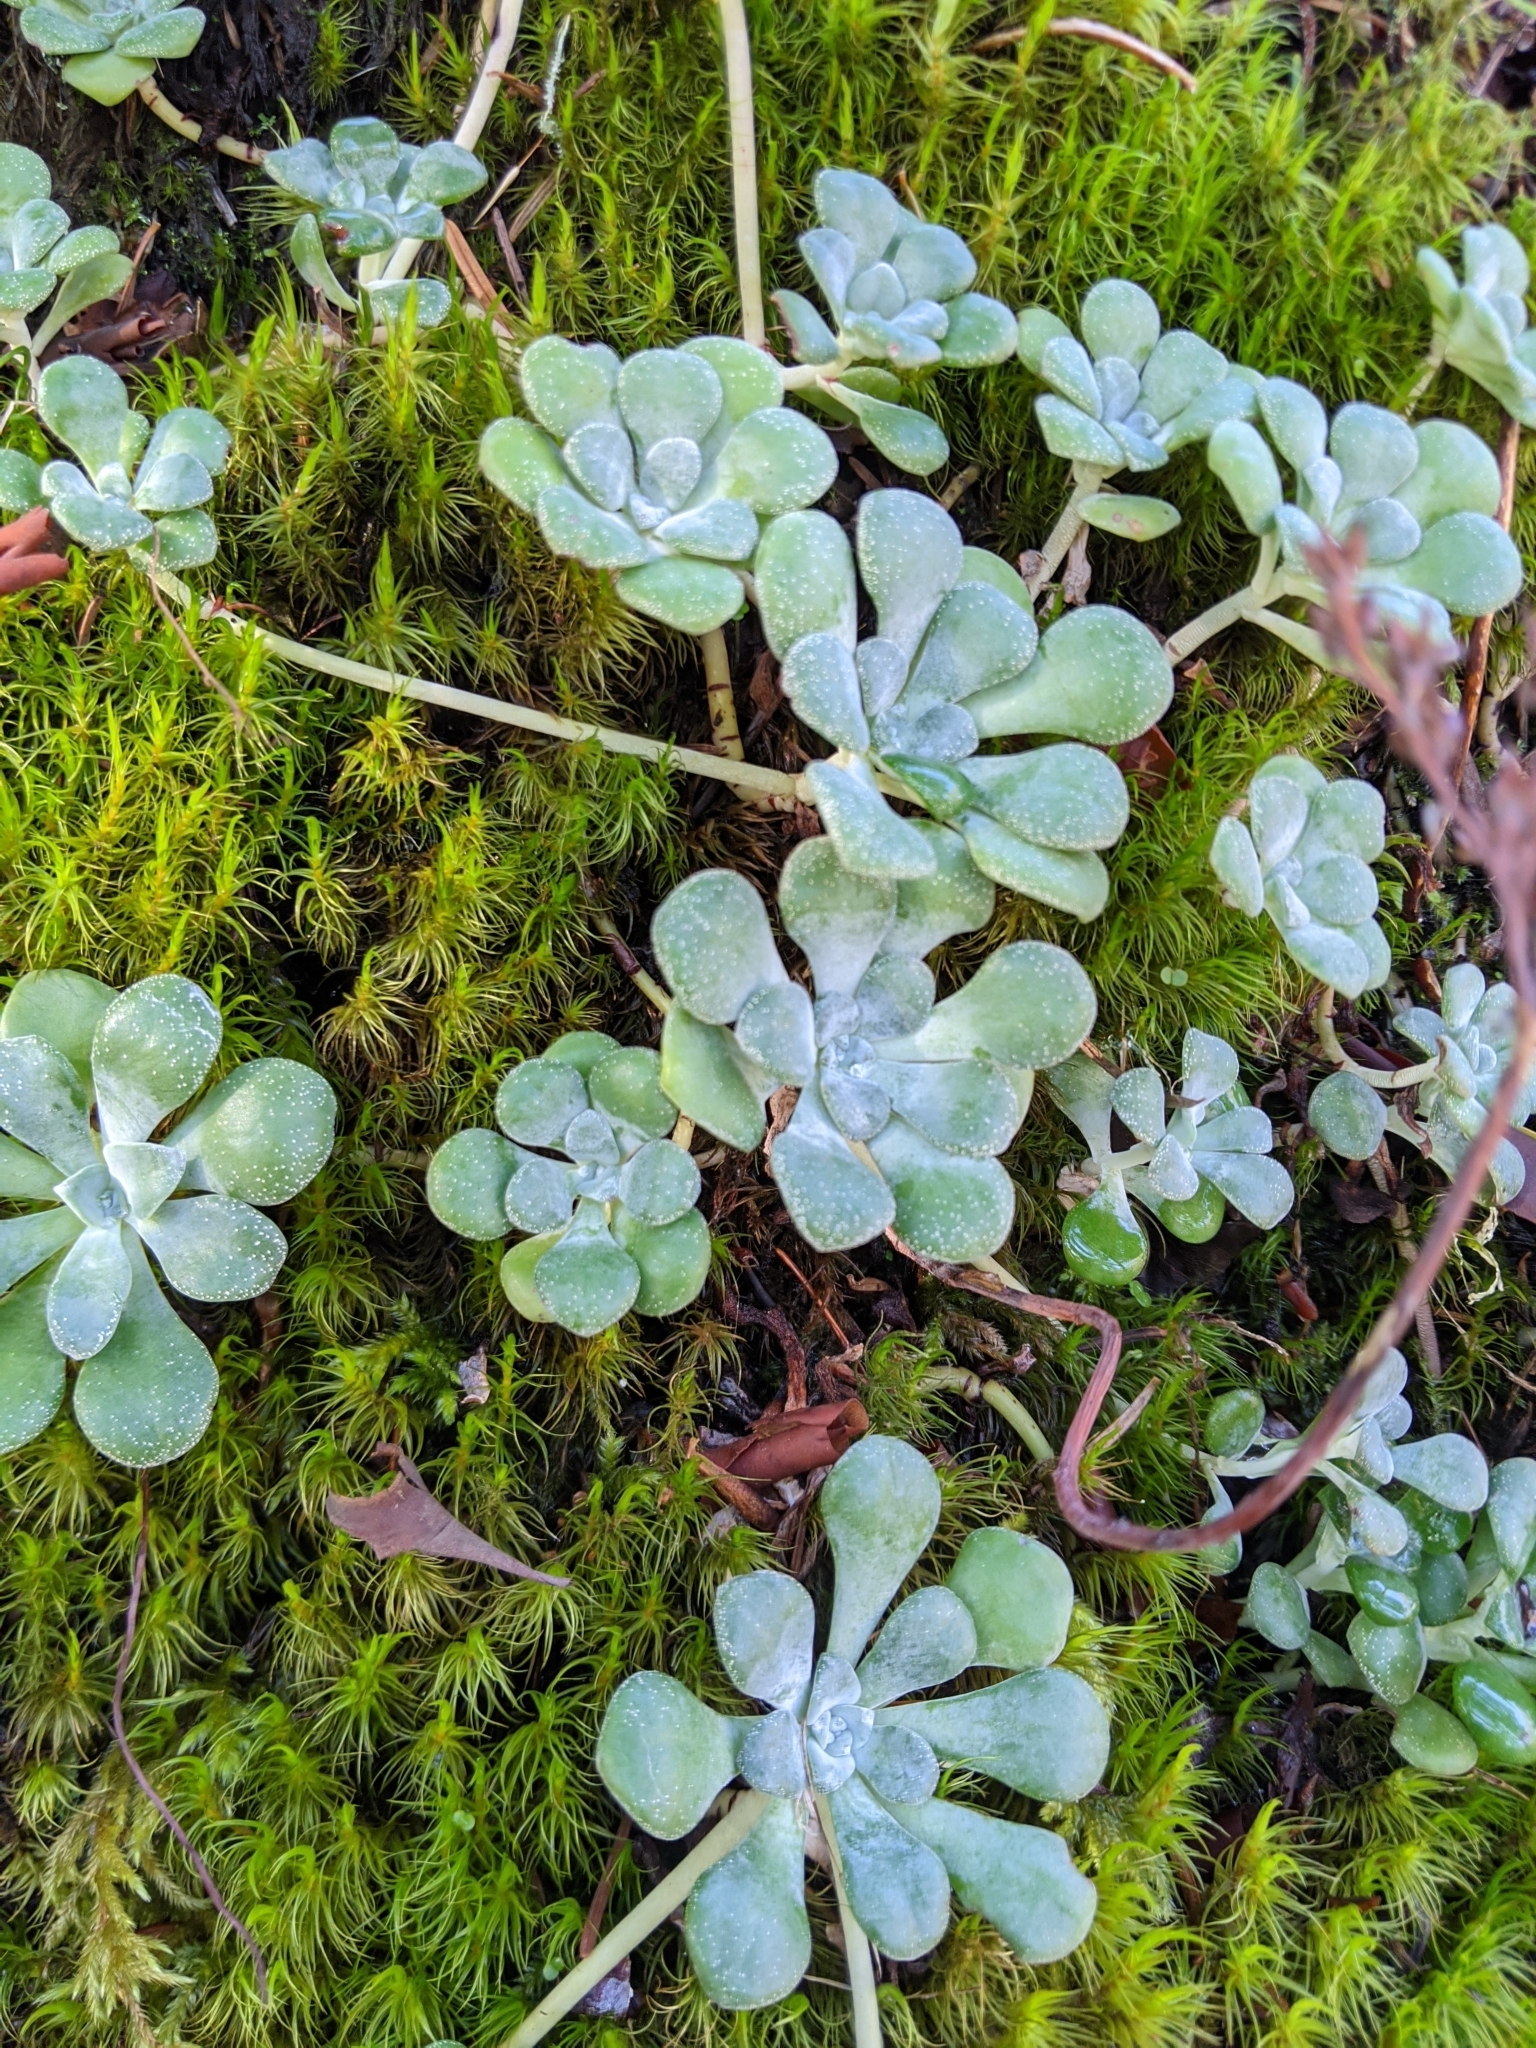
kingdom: Plantae
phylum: Tracheophyta
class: Magnoliopsida
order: Saxifragales
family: Crassulaceae
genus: Sedum
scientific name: Sedum spathulifolium
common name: Colorado stonecrop
